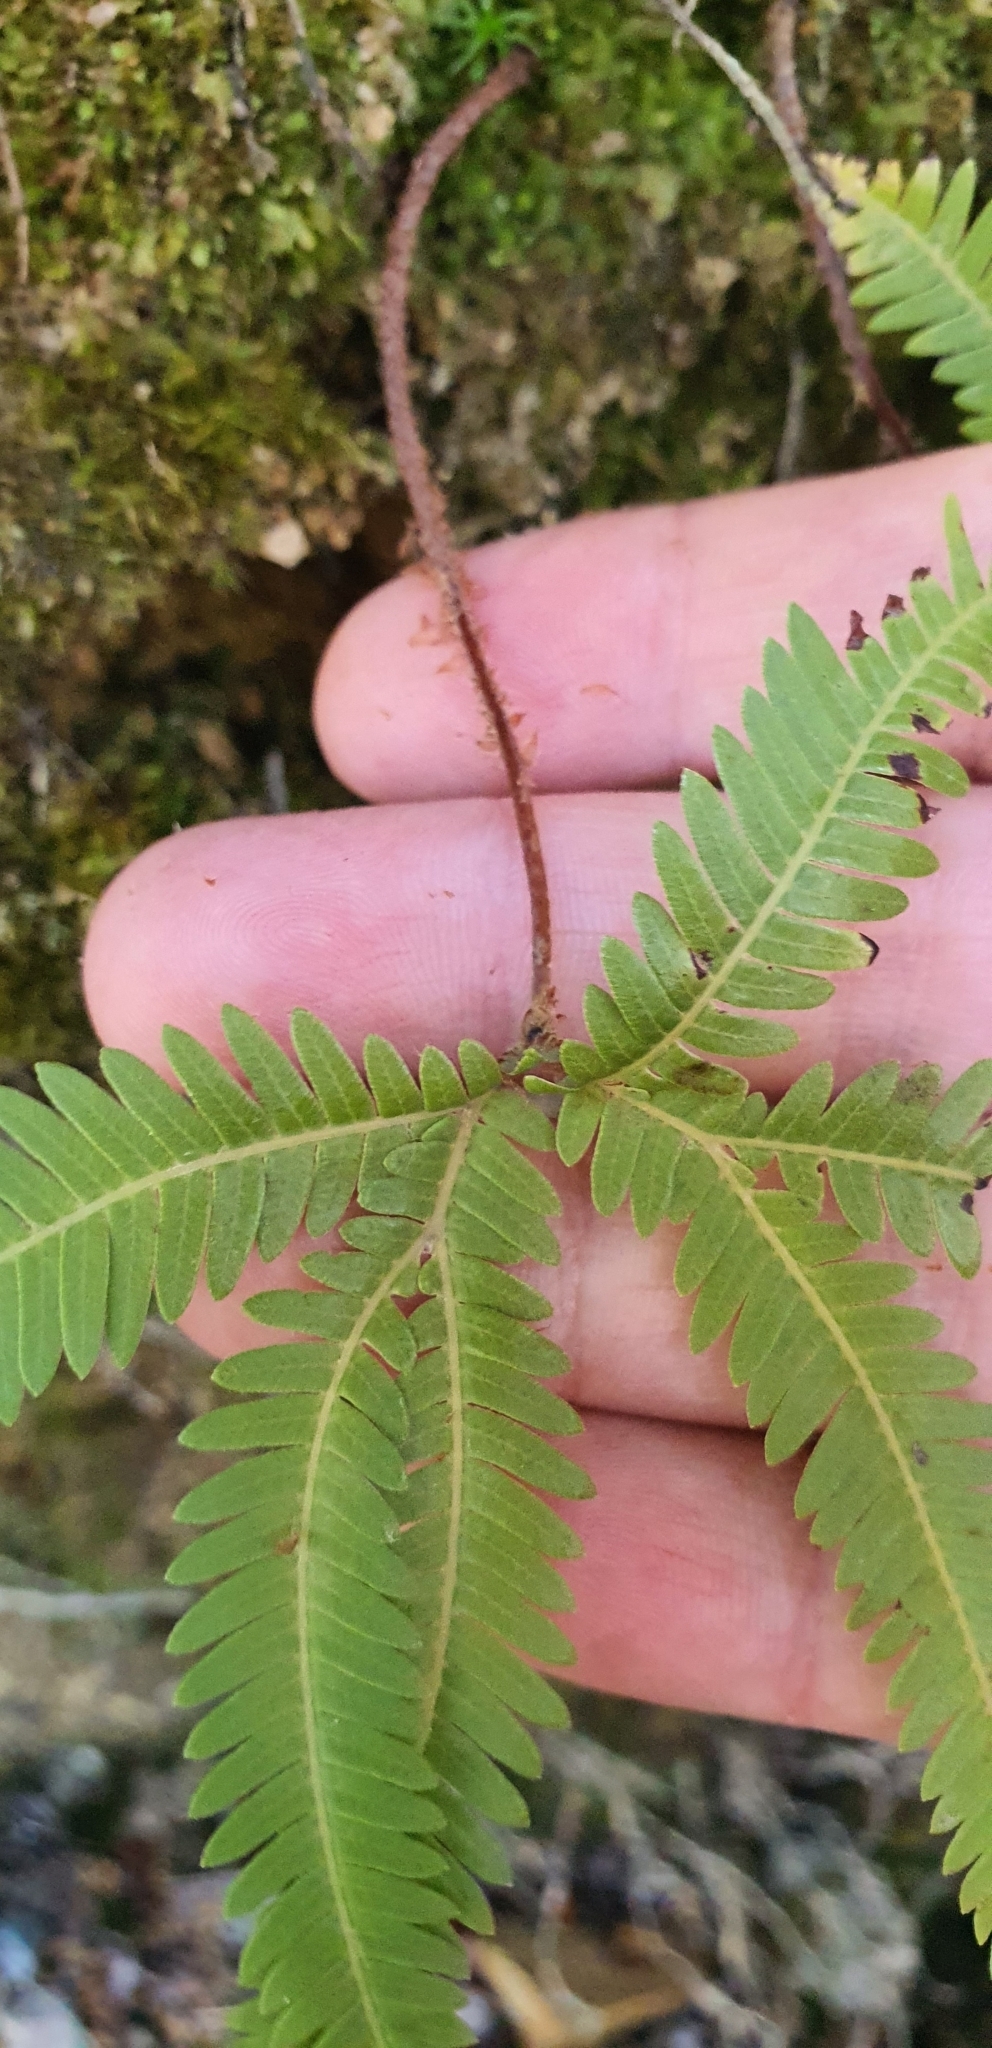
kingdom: Plantae
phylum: Tracheophyta
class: Polypodiopsida
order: Gleicheniales
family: Gleicheniaceae
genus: Sticherus
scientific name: Sticherus cunninghamii
